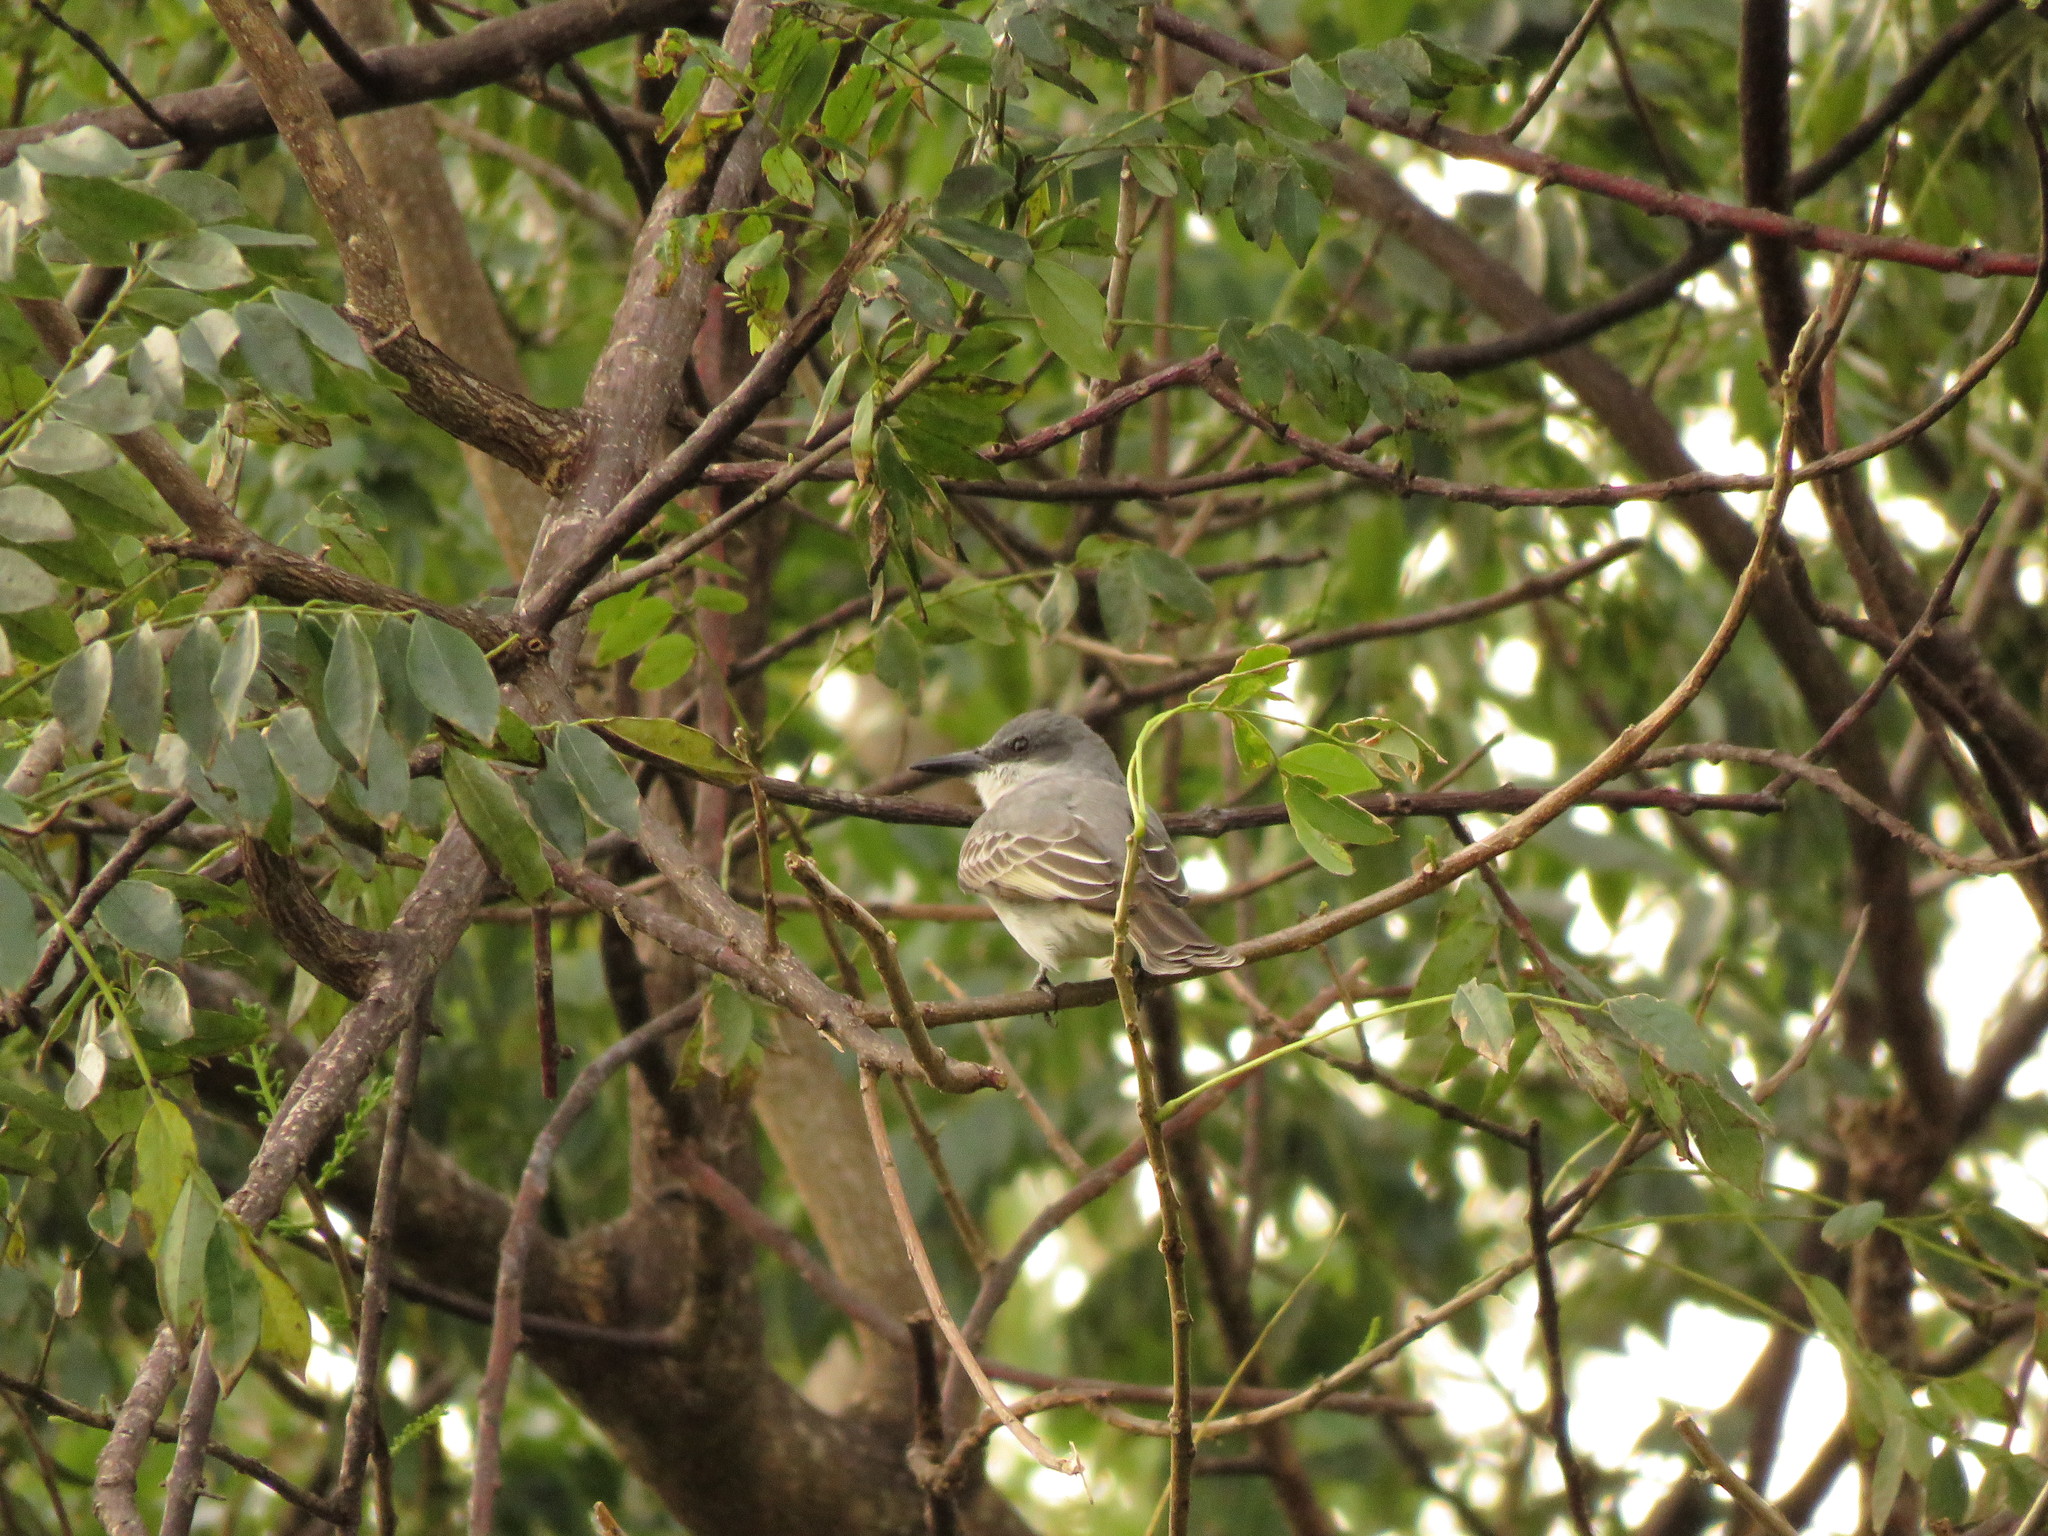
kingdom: Animalia
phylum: Chordata
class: Aves
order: Passeriformes
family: Tyrannidae
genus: Tyrannus
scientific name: Tyrannus dominicensis
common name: Gray kingbird
